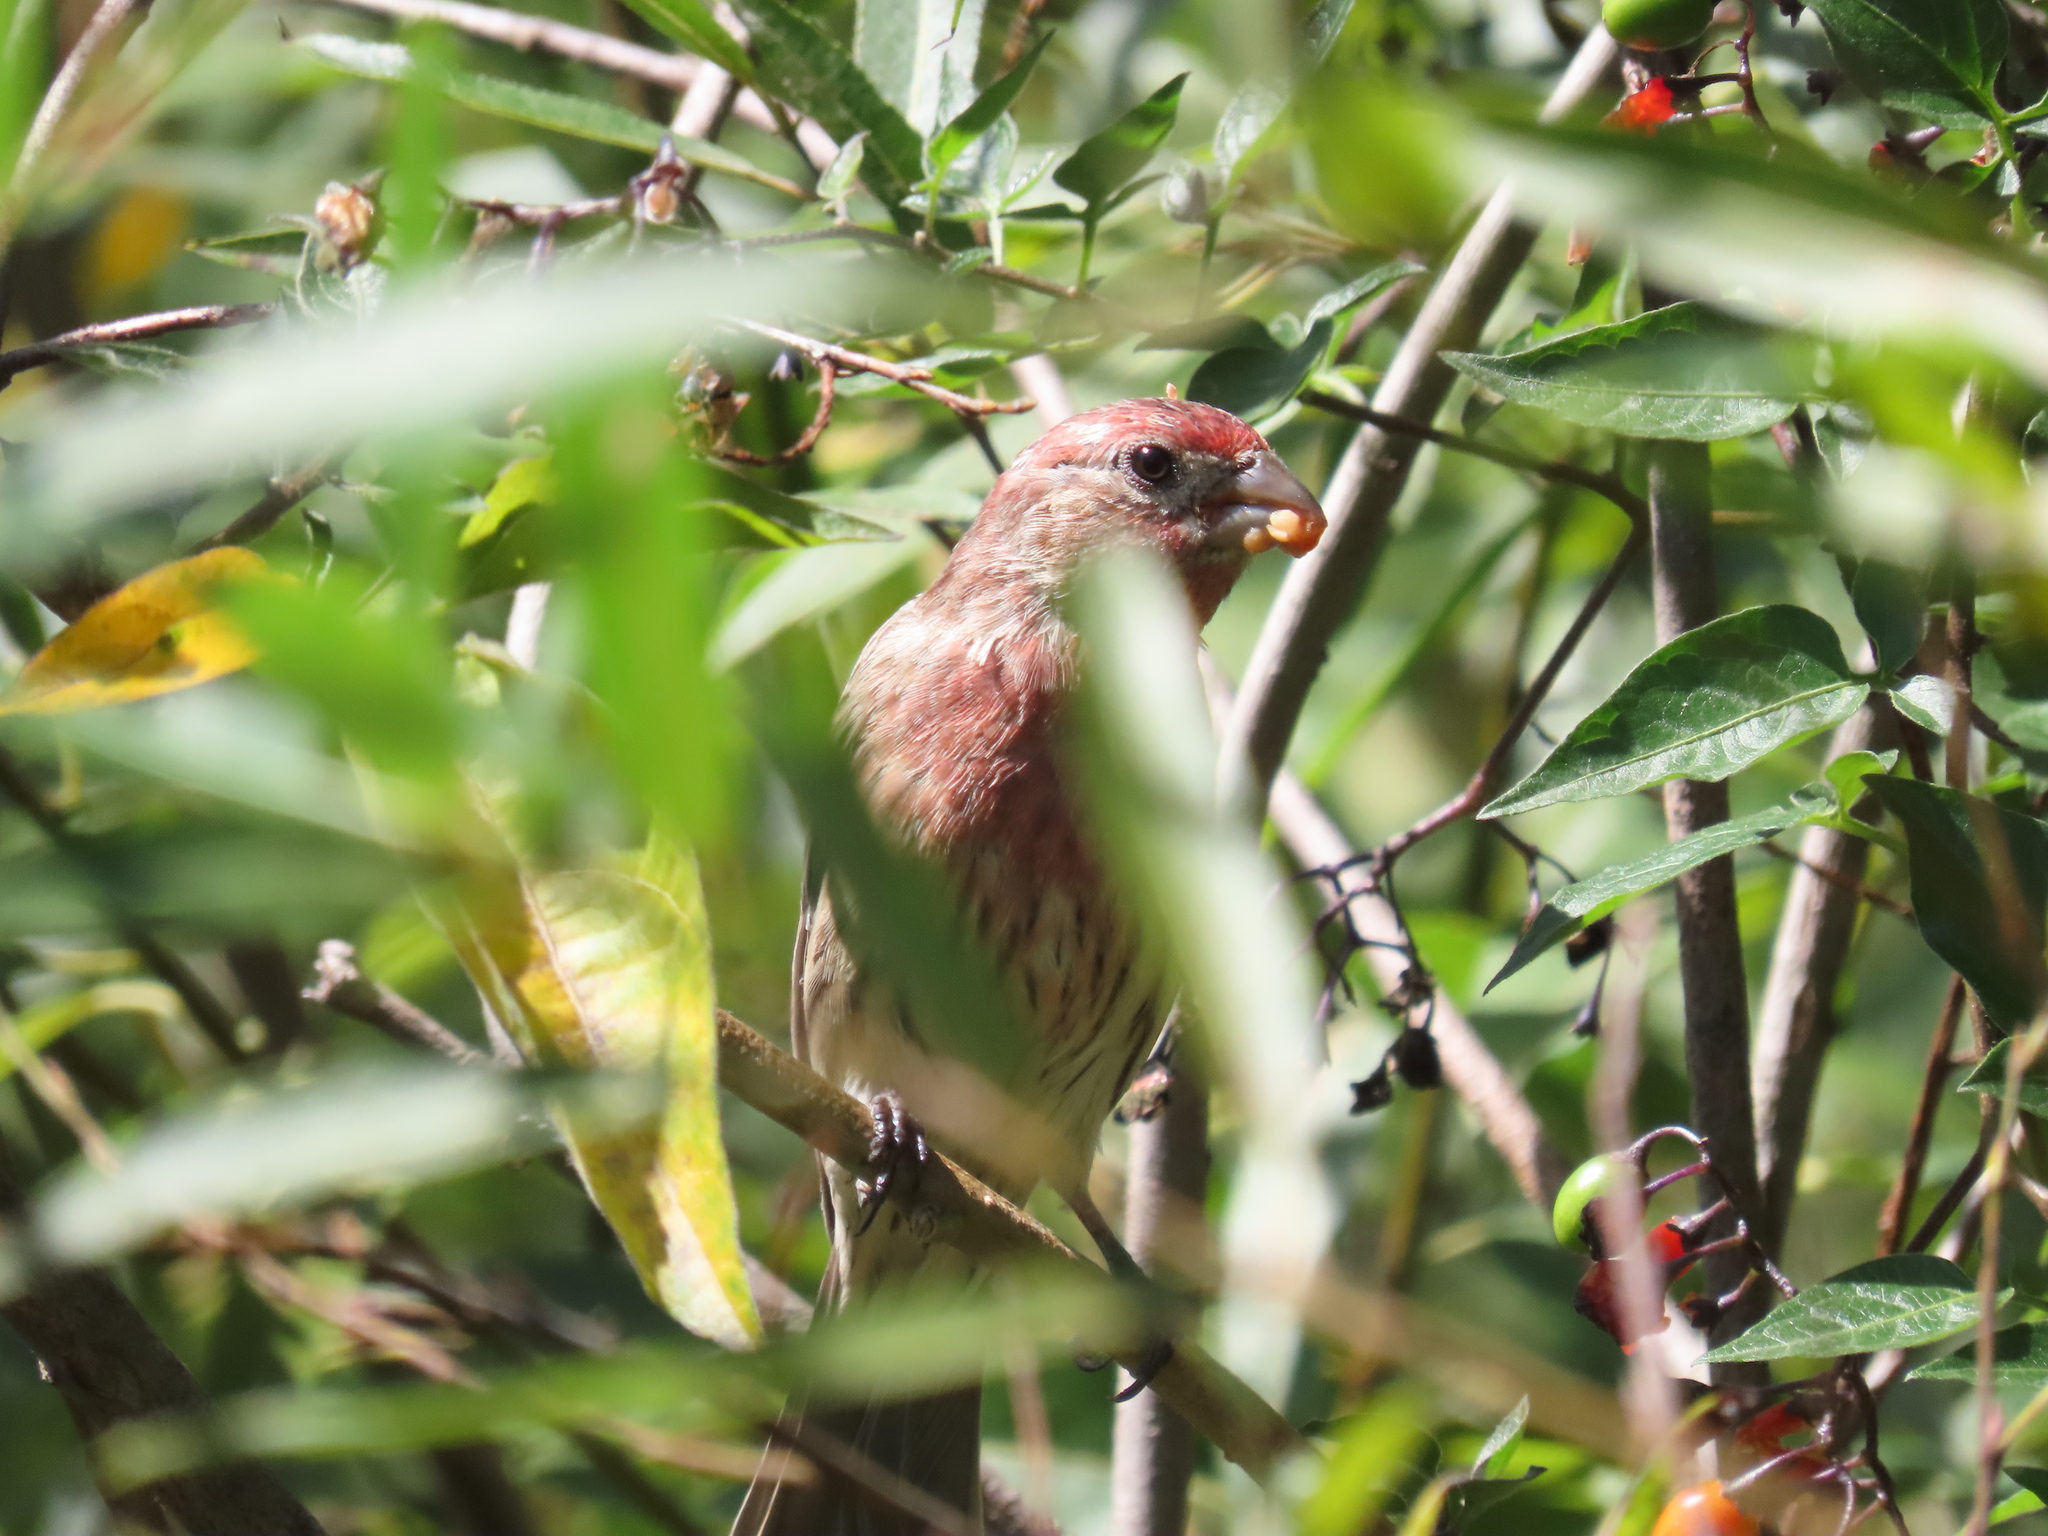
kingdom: Animalia
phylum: Chordata
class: Aves
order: Passeriformes
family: Fringillidae
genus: Haemorhous
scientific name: Haemorhous mexicanus
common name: House finch
